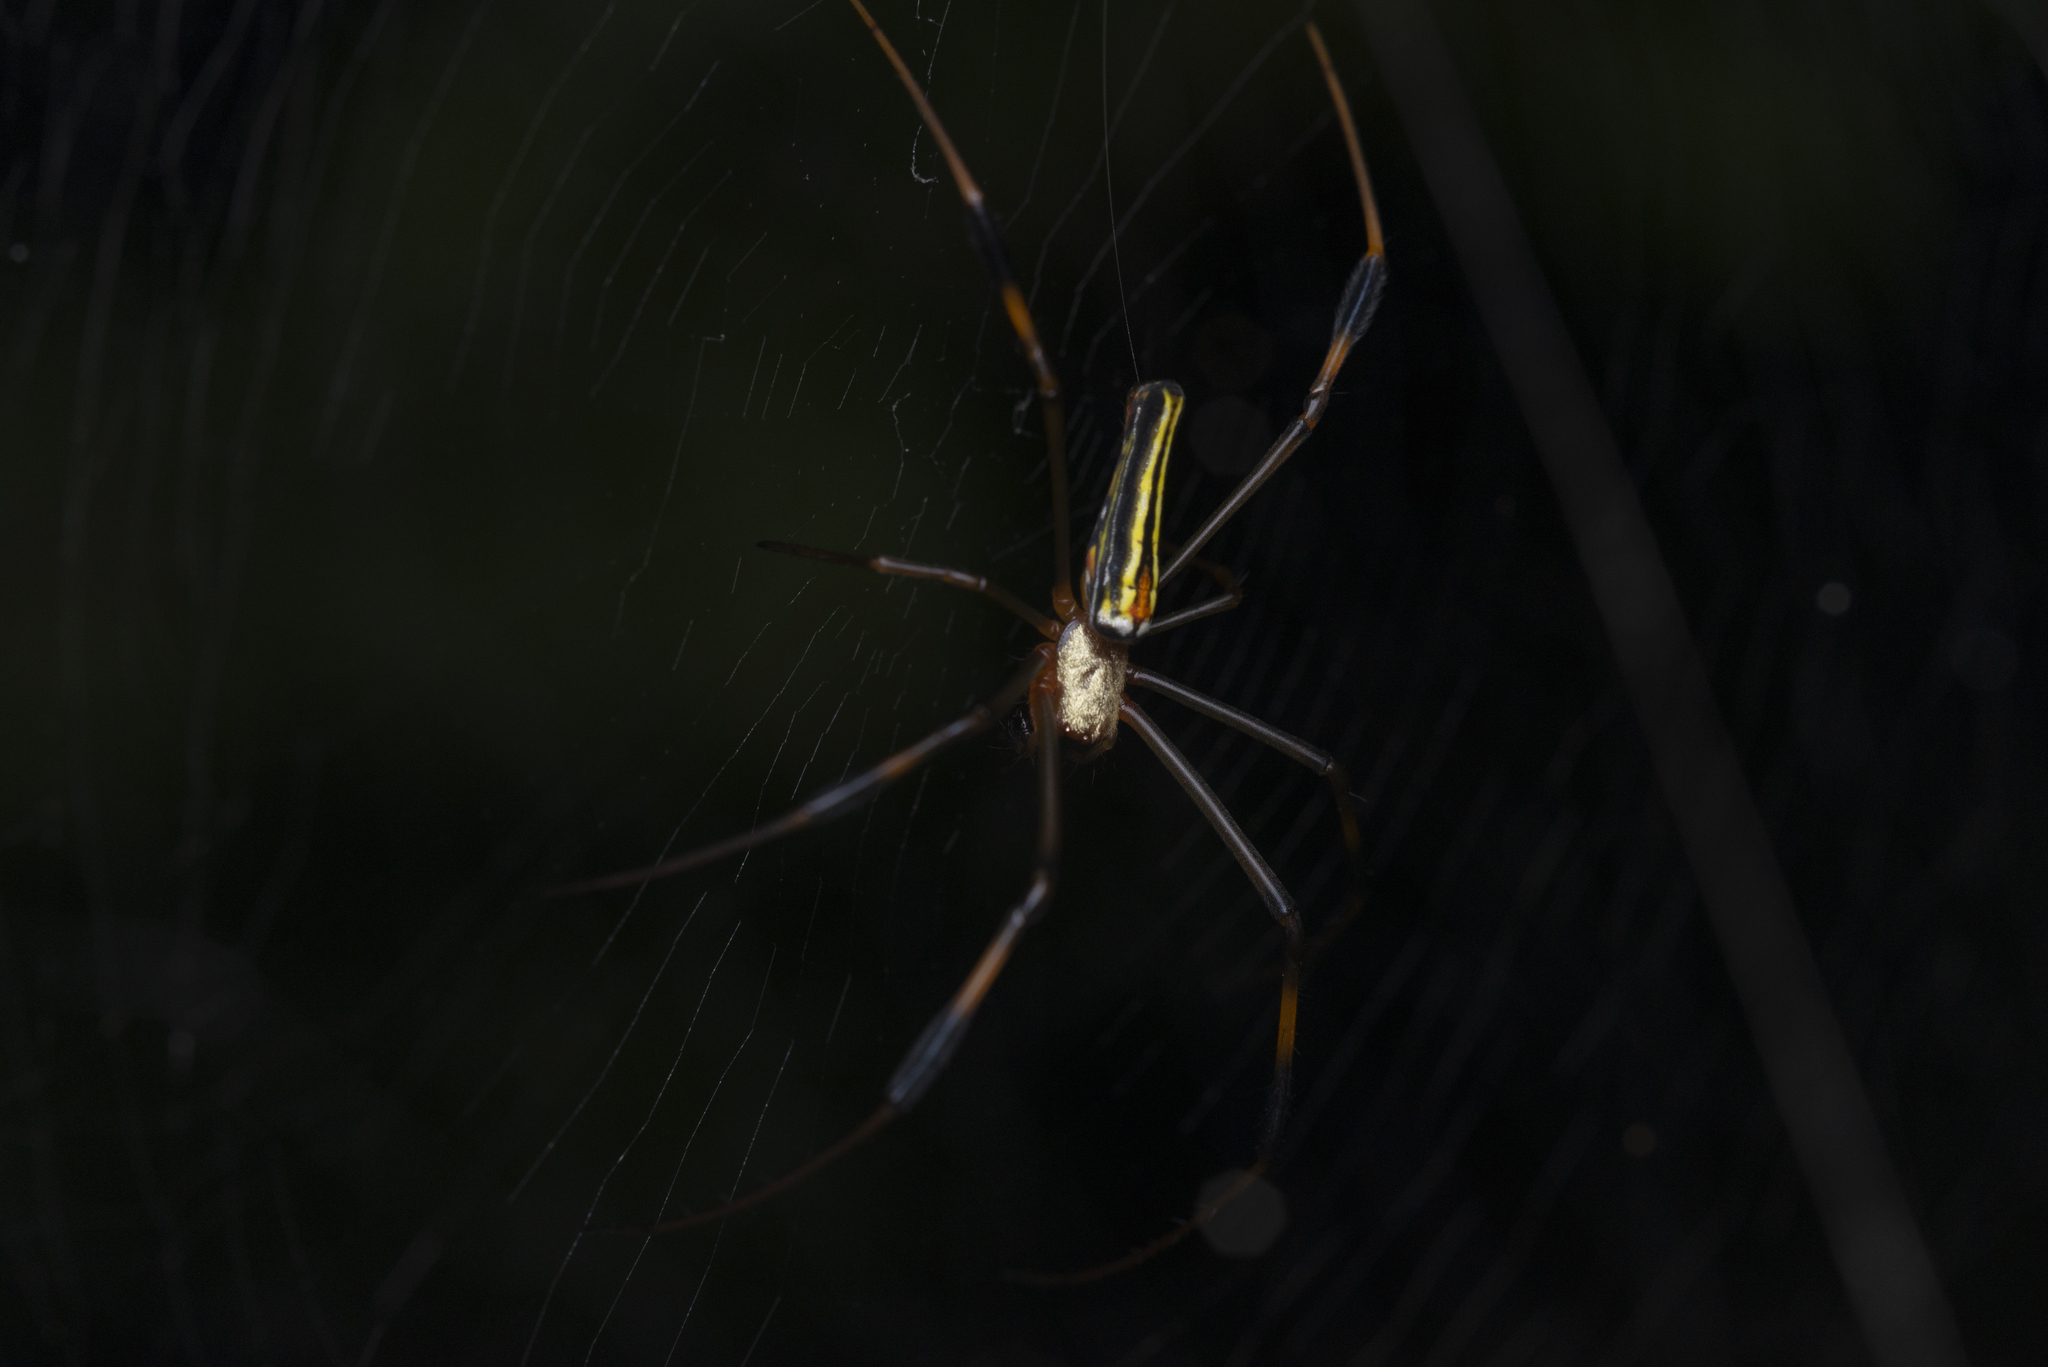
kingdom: Animalia
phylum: Arthropoda
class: Arachnida
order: Araneae
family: Araneidae
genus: Nephila
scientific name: Nephila pilipes
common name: Giant golden orb weaver
